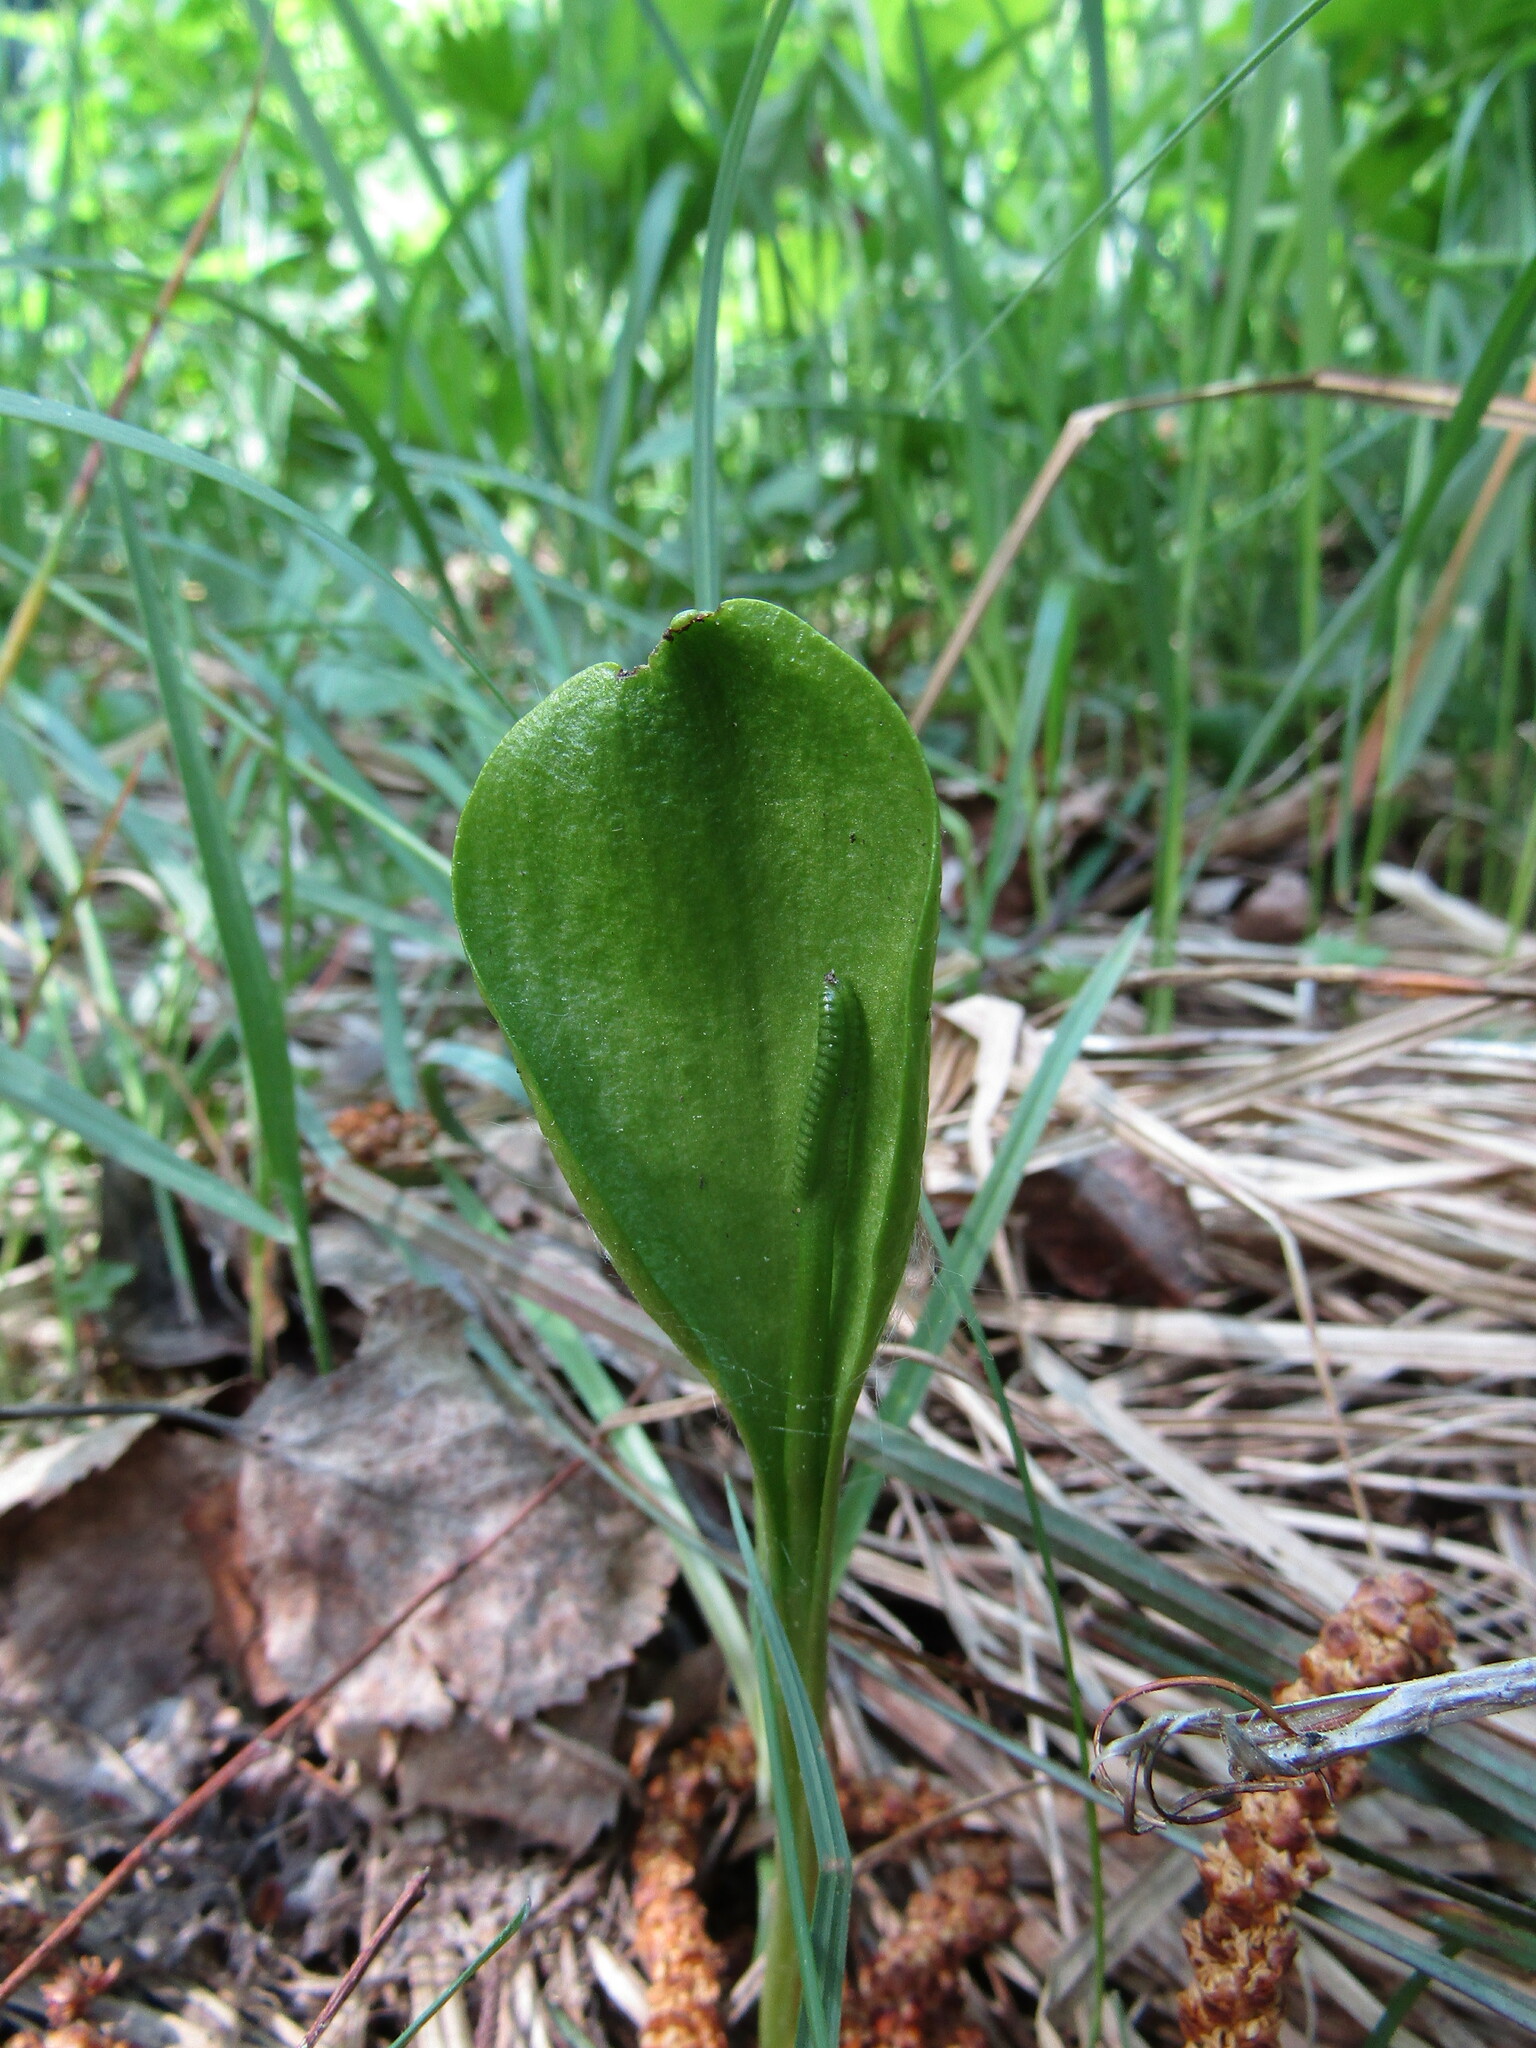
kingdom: Plantae
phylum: Tracheophyta
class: Polypodiopsida
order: Ophioglossales
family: Ophioglossaceae
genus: Ophioglossum
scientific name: Ophioglossum vulgatum
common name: Adder's-tongue
